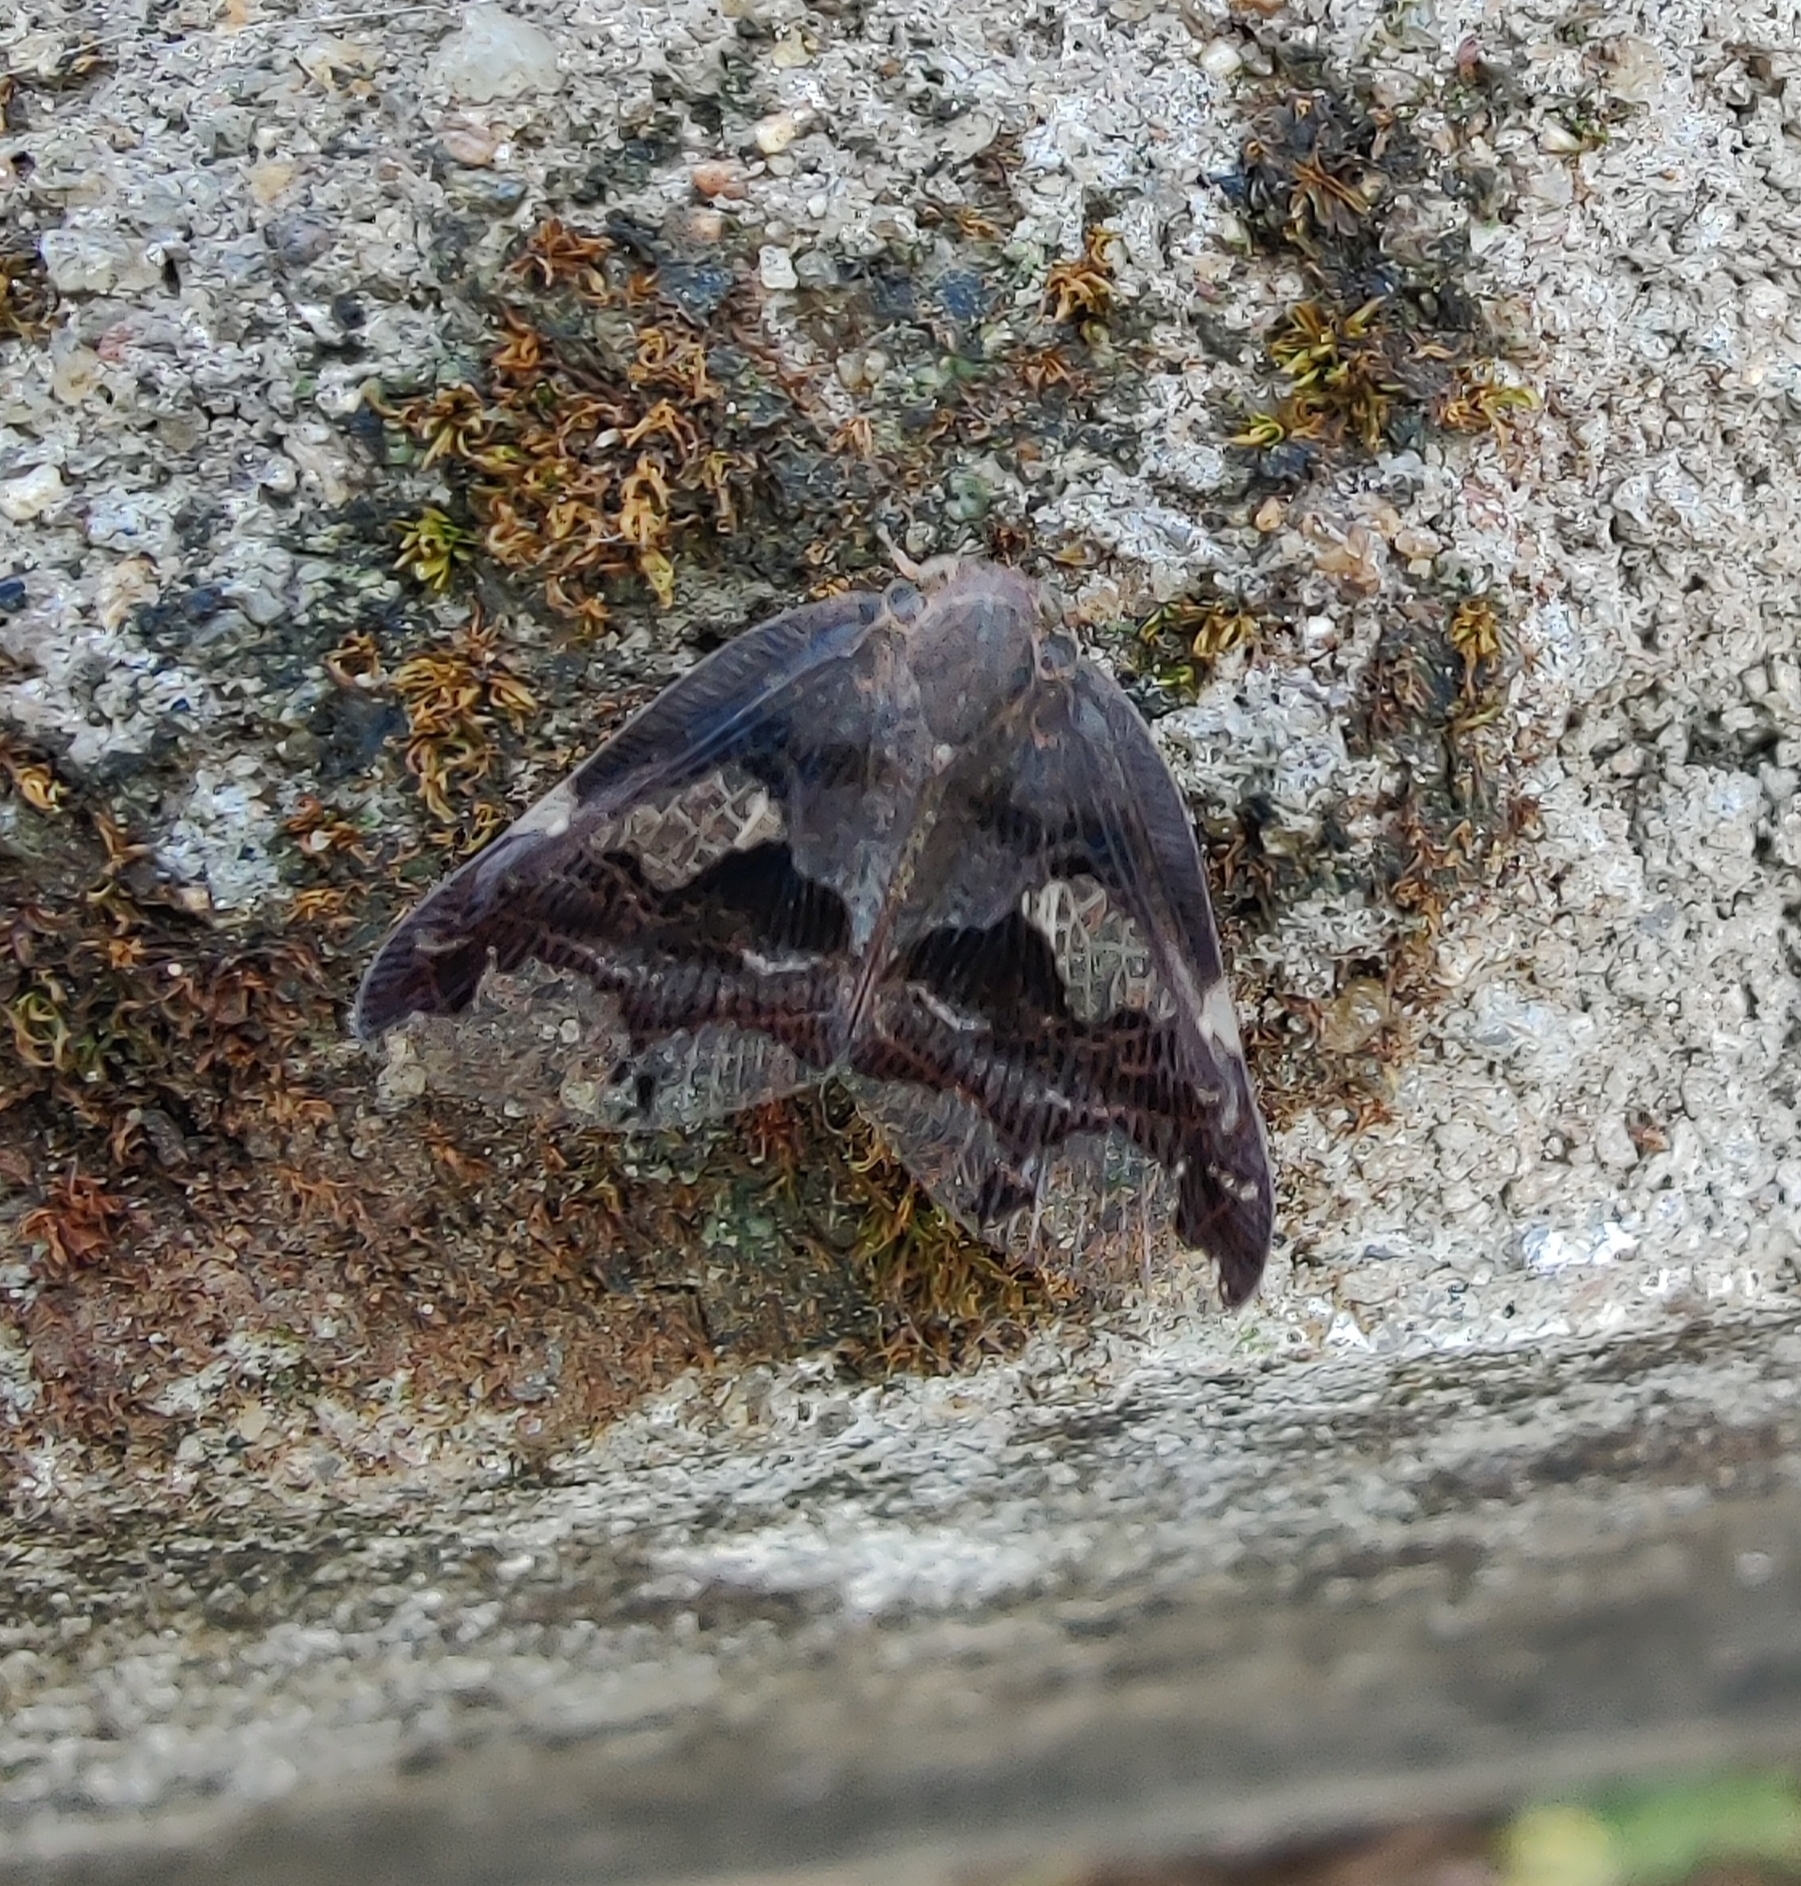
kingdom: Animalia
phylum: Arthropoda
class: Insecta
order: Hemiptera
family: Ricaniidae
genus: Ricania
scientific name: Ricania fenestrata
